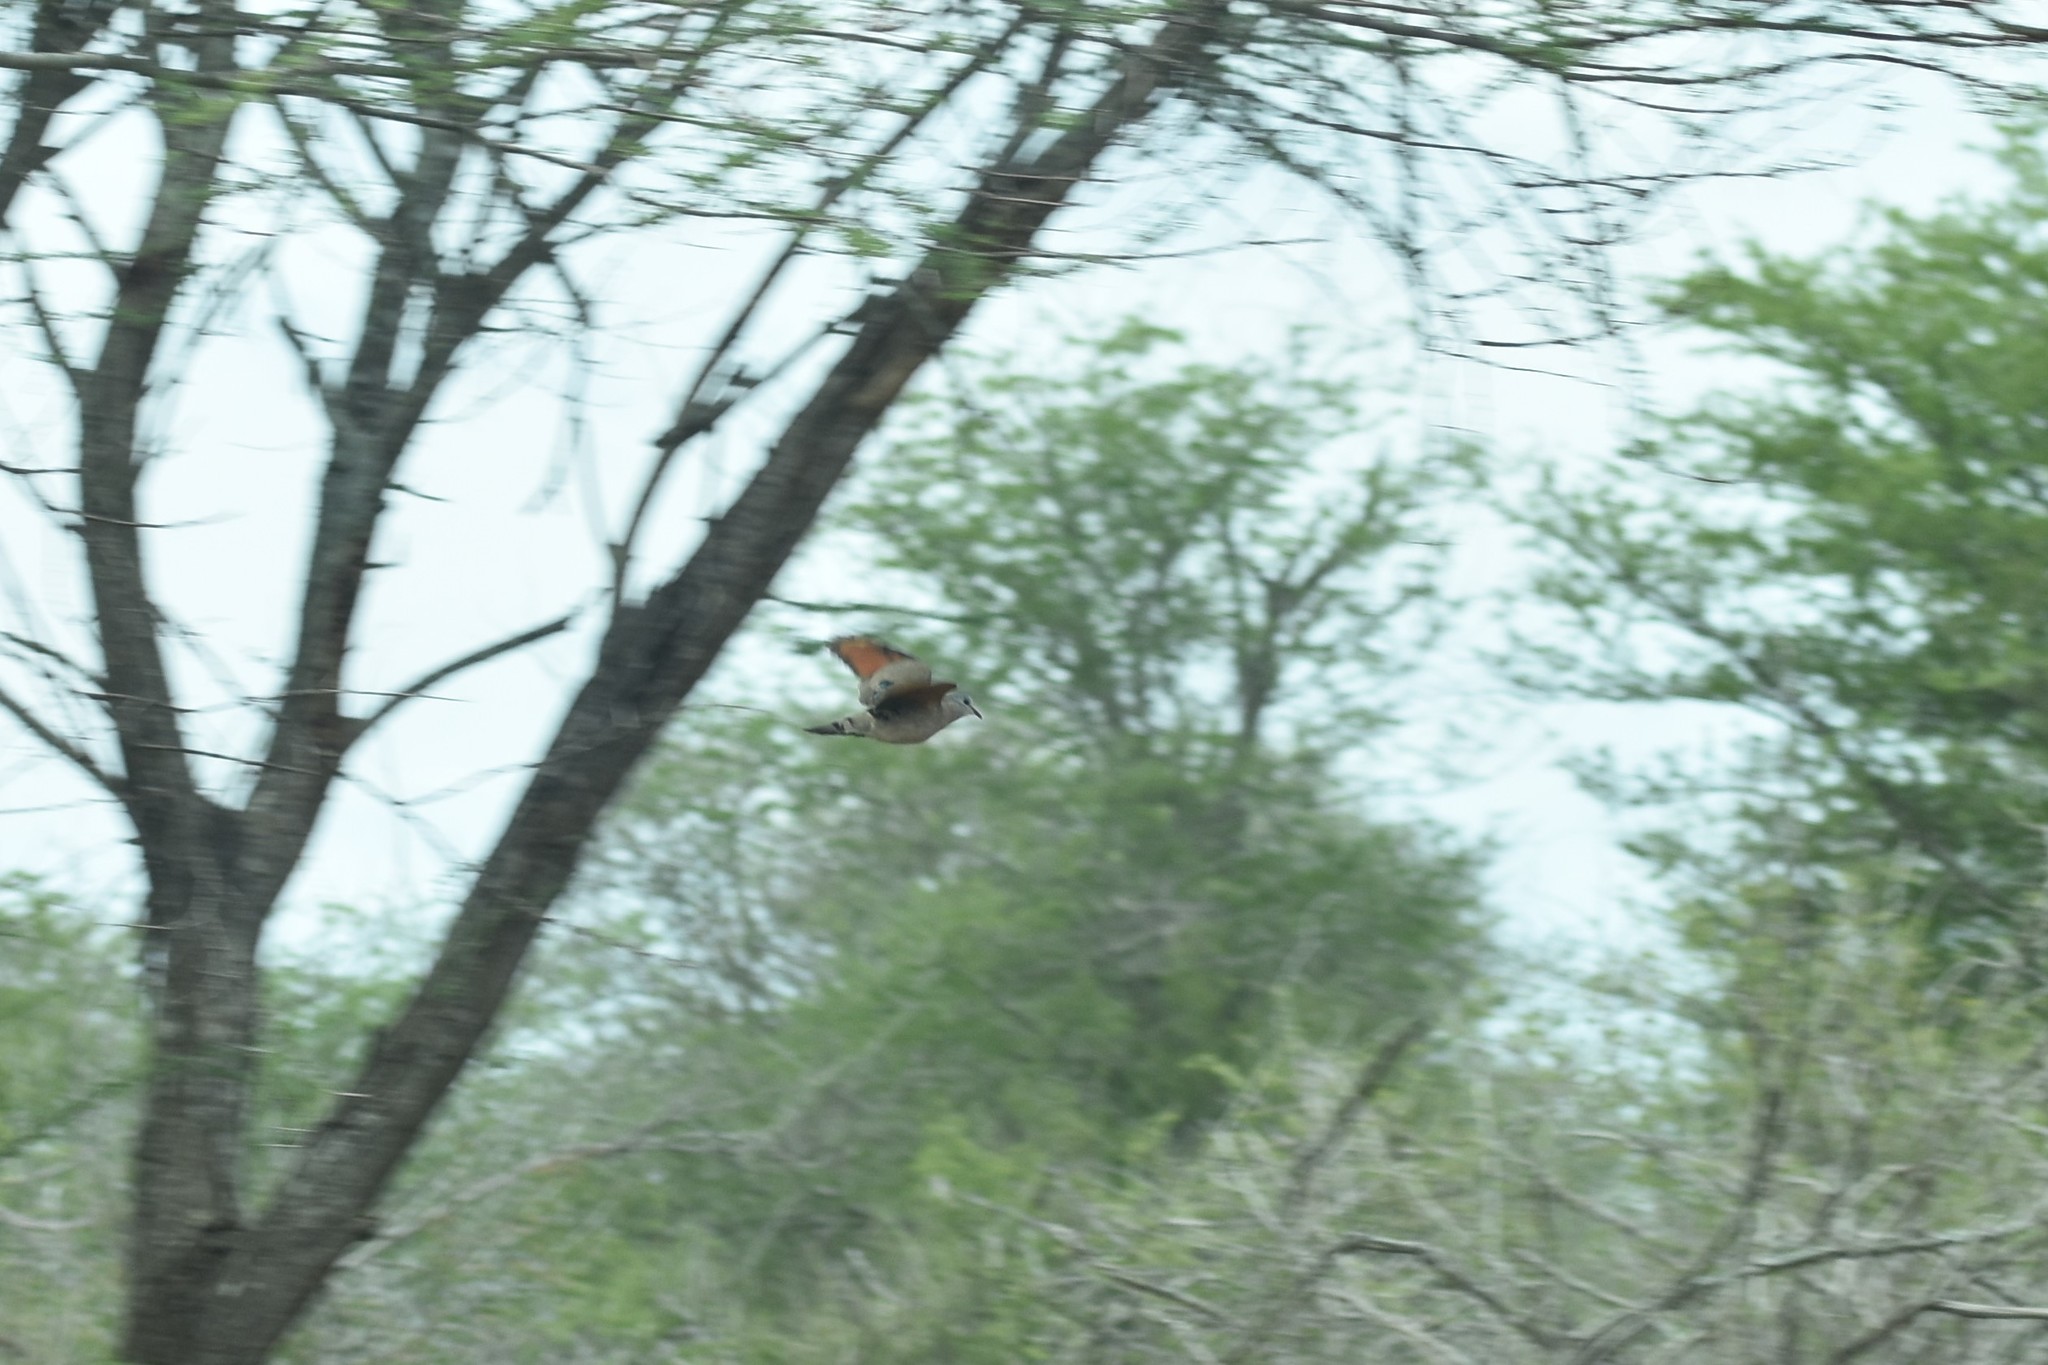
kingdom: Animalia
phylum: Chordata
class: Aves
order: Columbiformes
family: Columbidae
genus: Turtur
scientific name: Turtur chalcospilos
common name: Emerald-spotted wood dove
